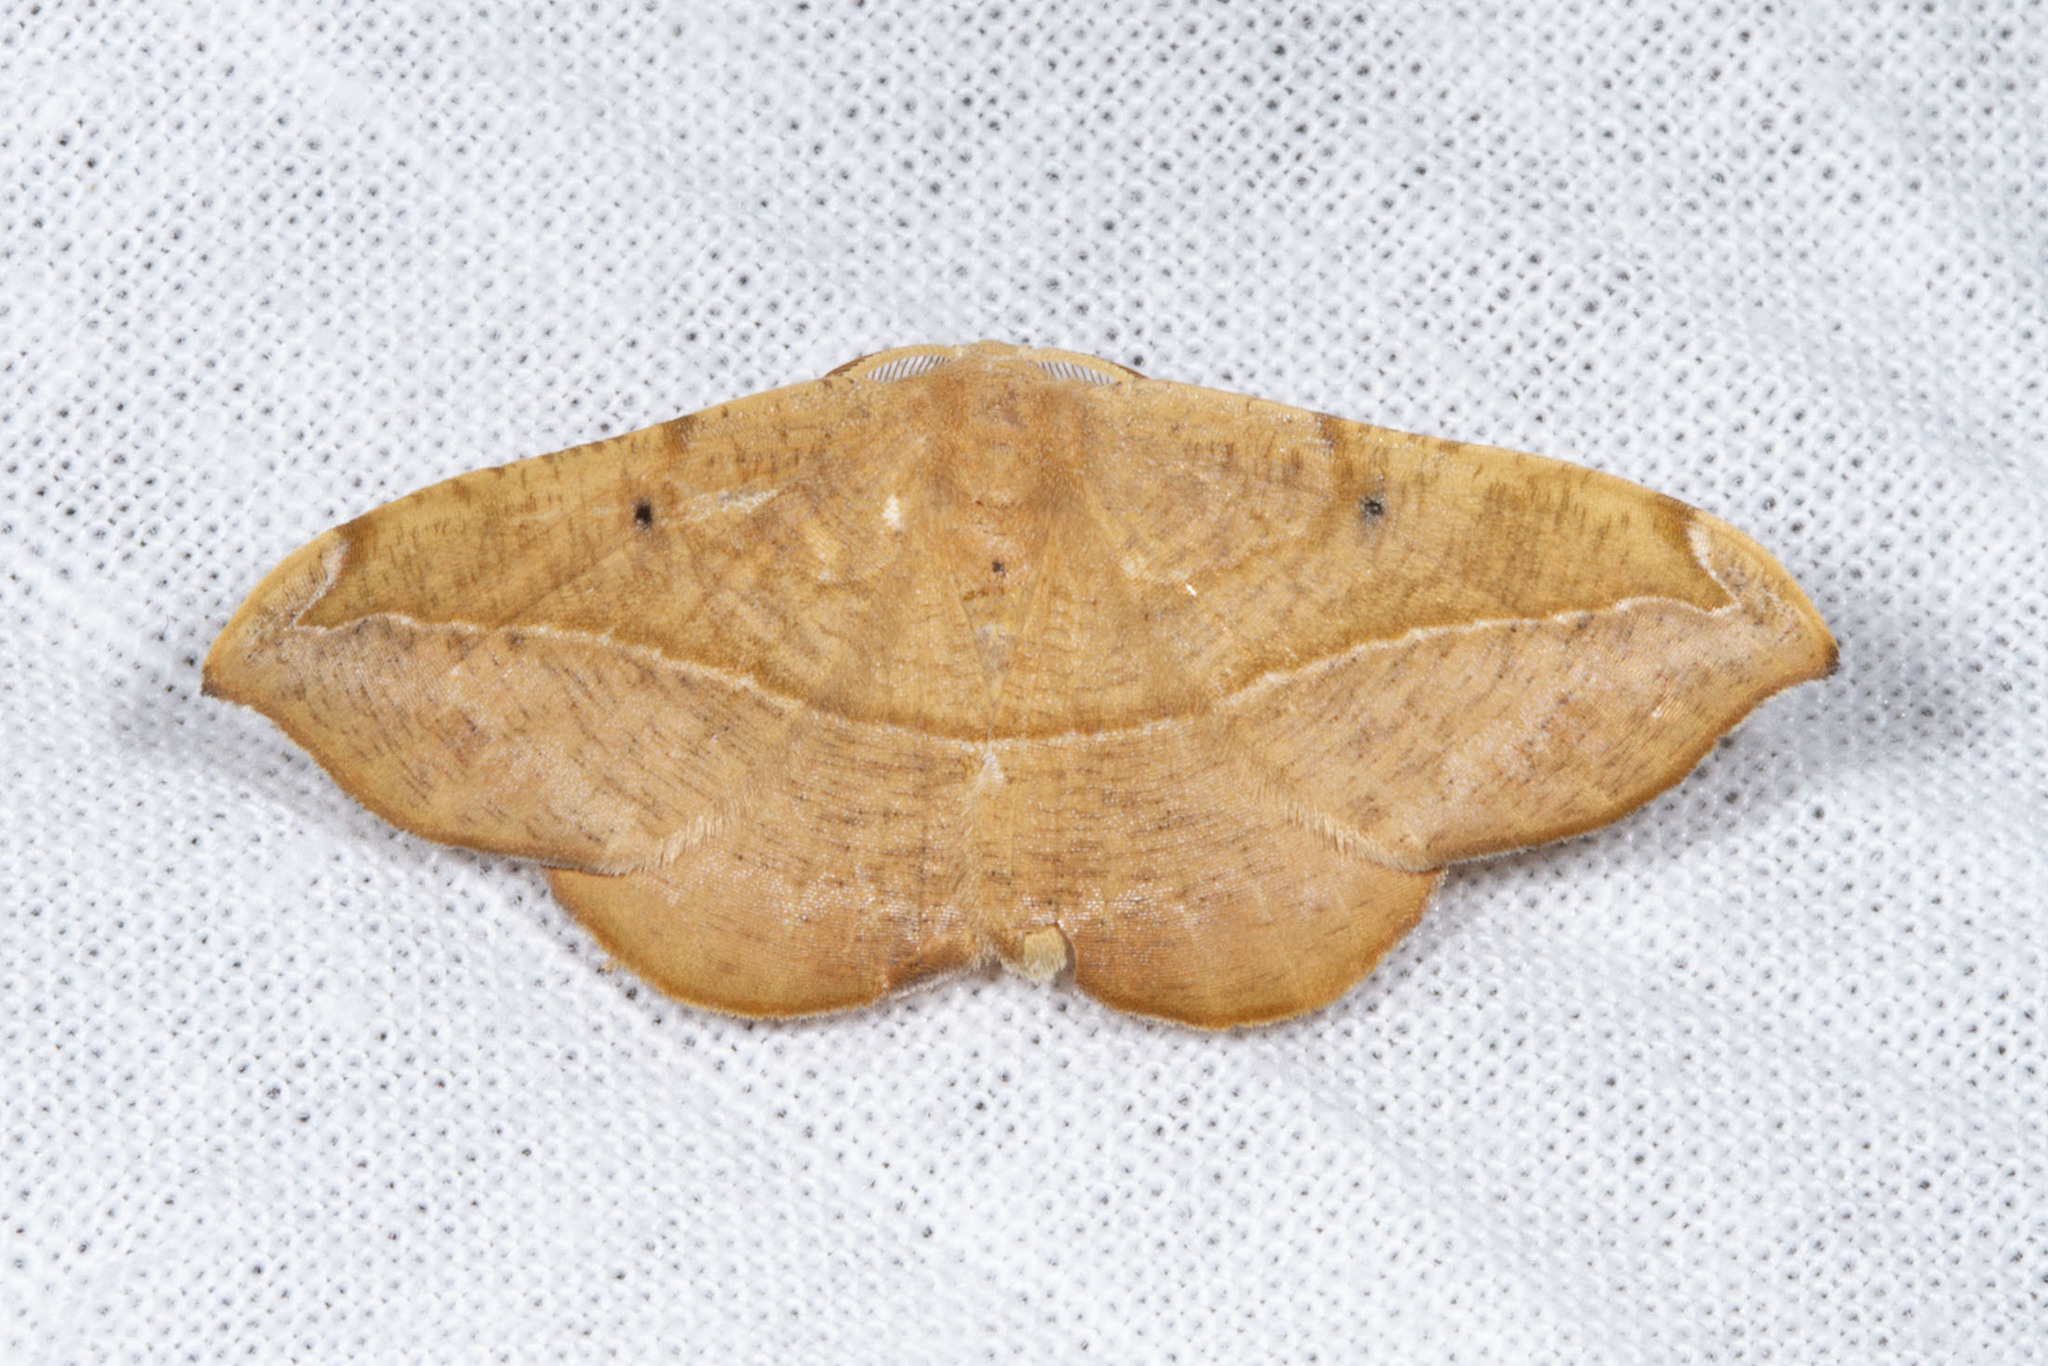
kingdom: Animalia
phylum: Arthropoda
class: Insecta
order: Lepidoptera
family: Geometridae
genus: Patalene
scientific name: Patalene olyzonaria
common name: Juniper geometer moth
